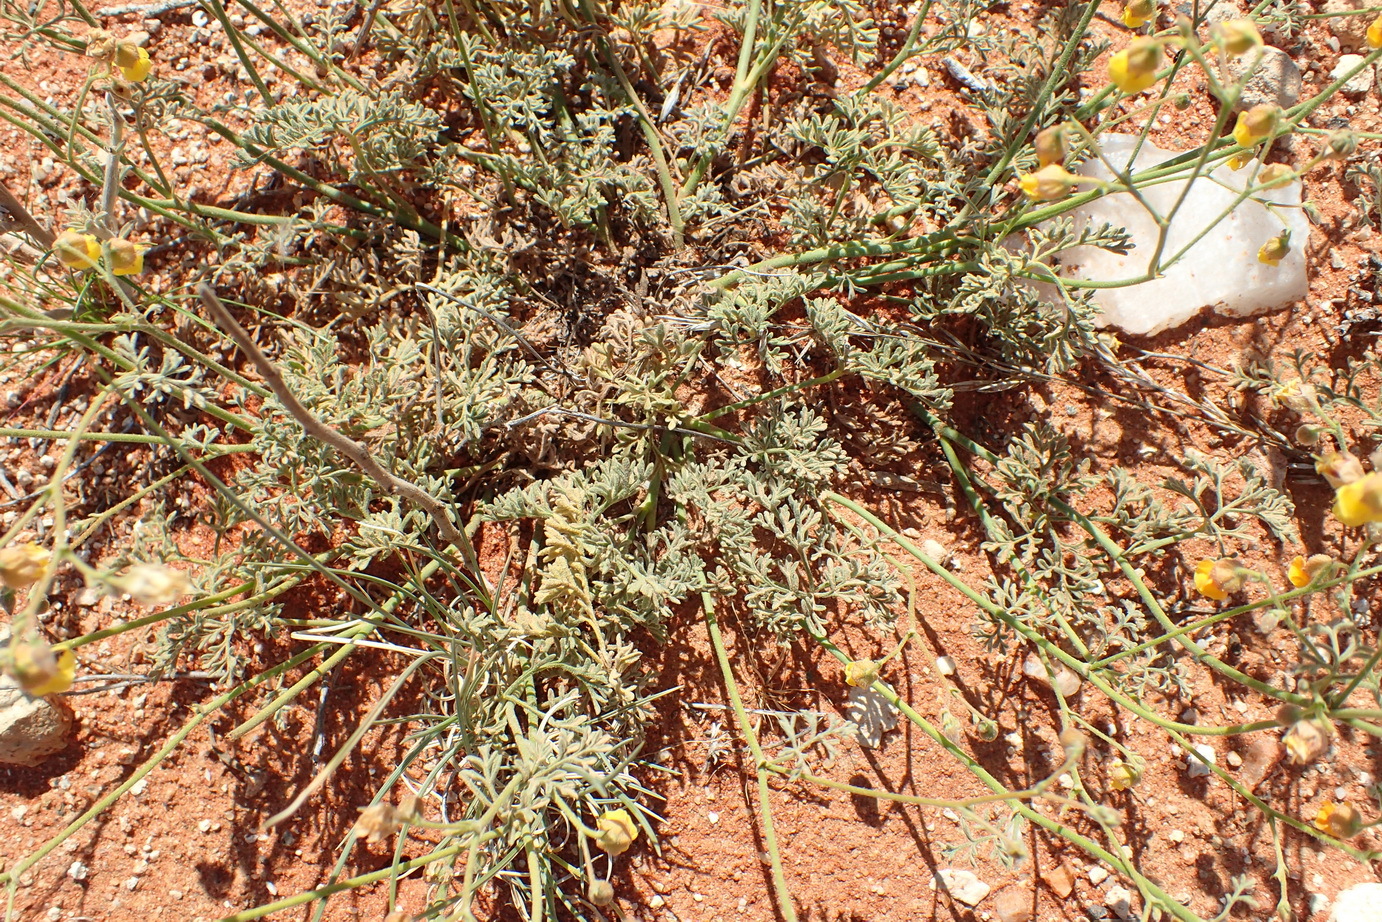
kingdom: Plantae
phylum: Tracheophyta
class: Magnoliopsida
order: Malvales
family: Malvaceae
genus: Hermannia
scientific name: Hermannia paucifolia
